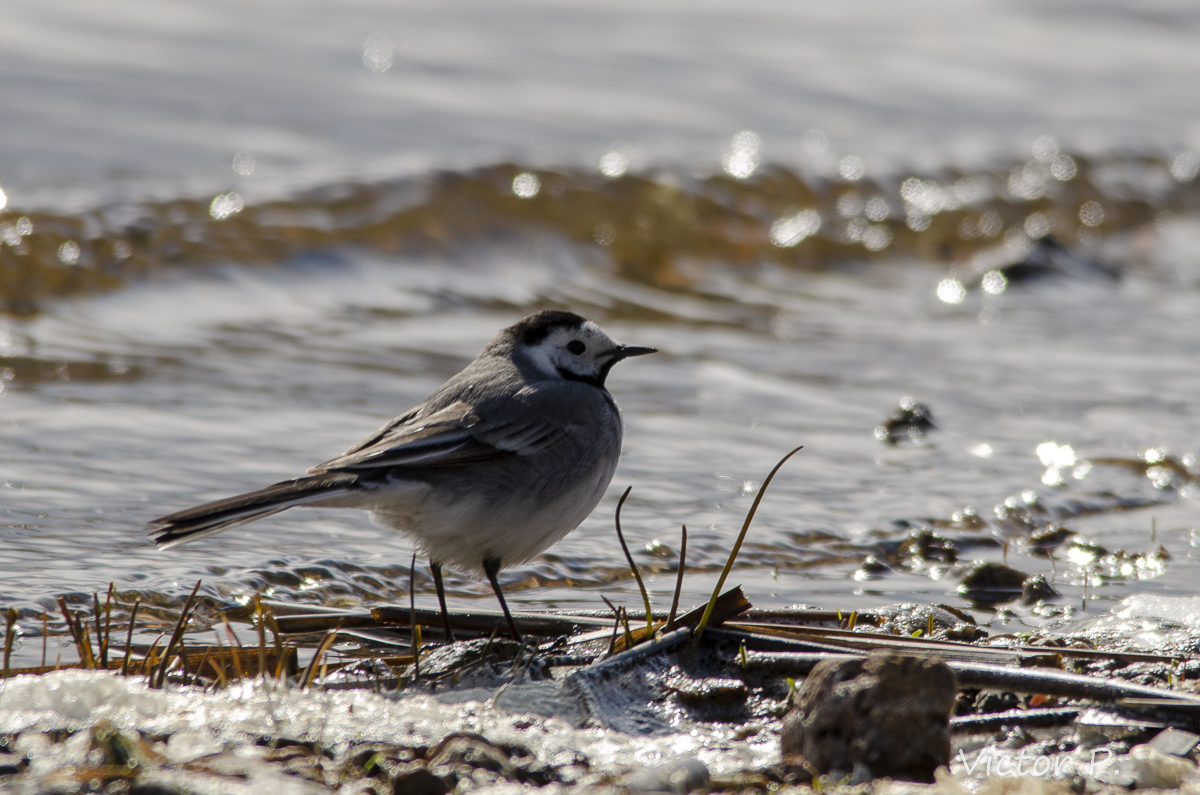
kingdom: Animalia
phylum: Chordata
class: Aves
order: Passeriformes
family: Motacillidae
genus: Motacilla
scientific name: Motacilla alba
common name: White wagtail
